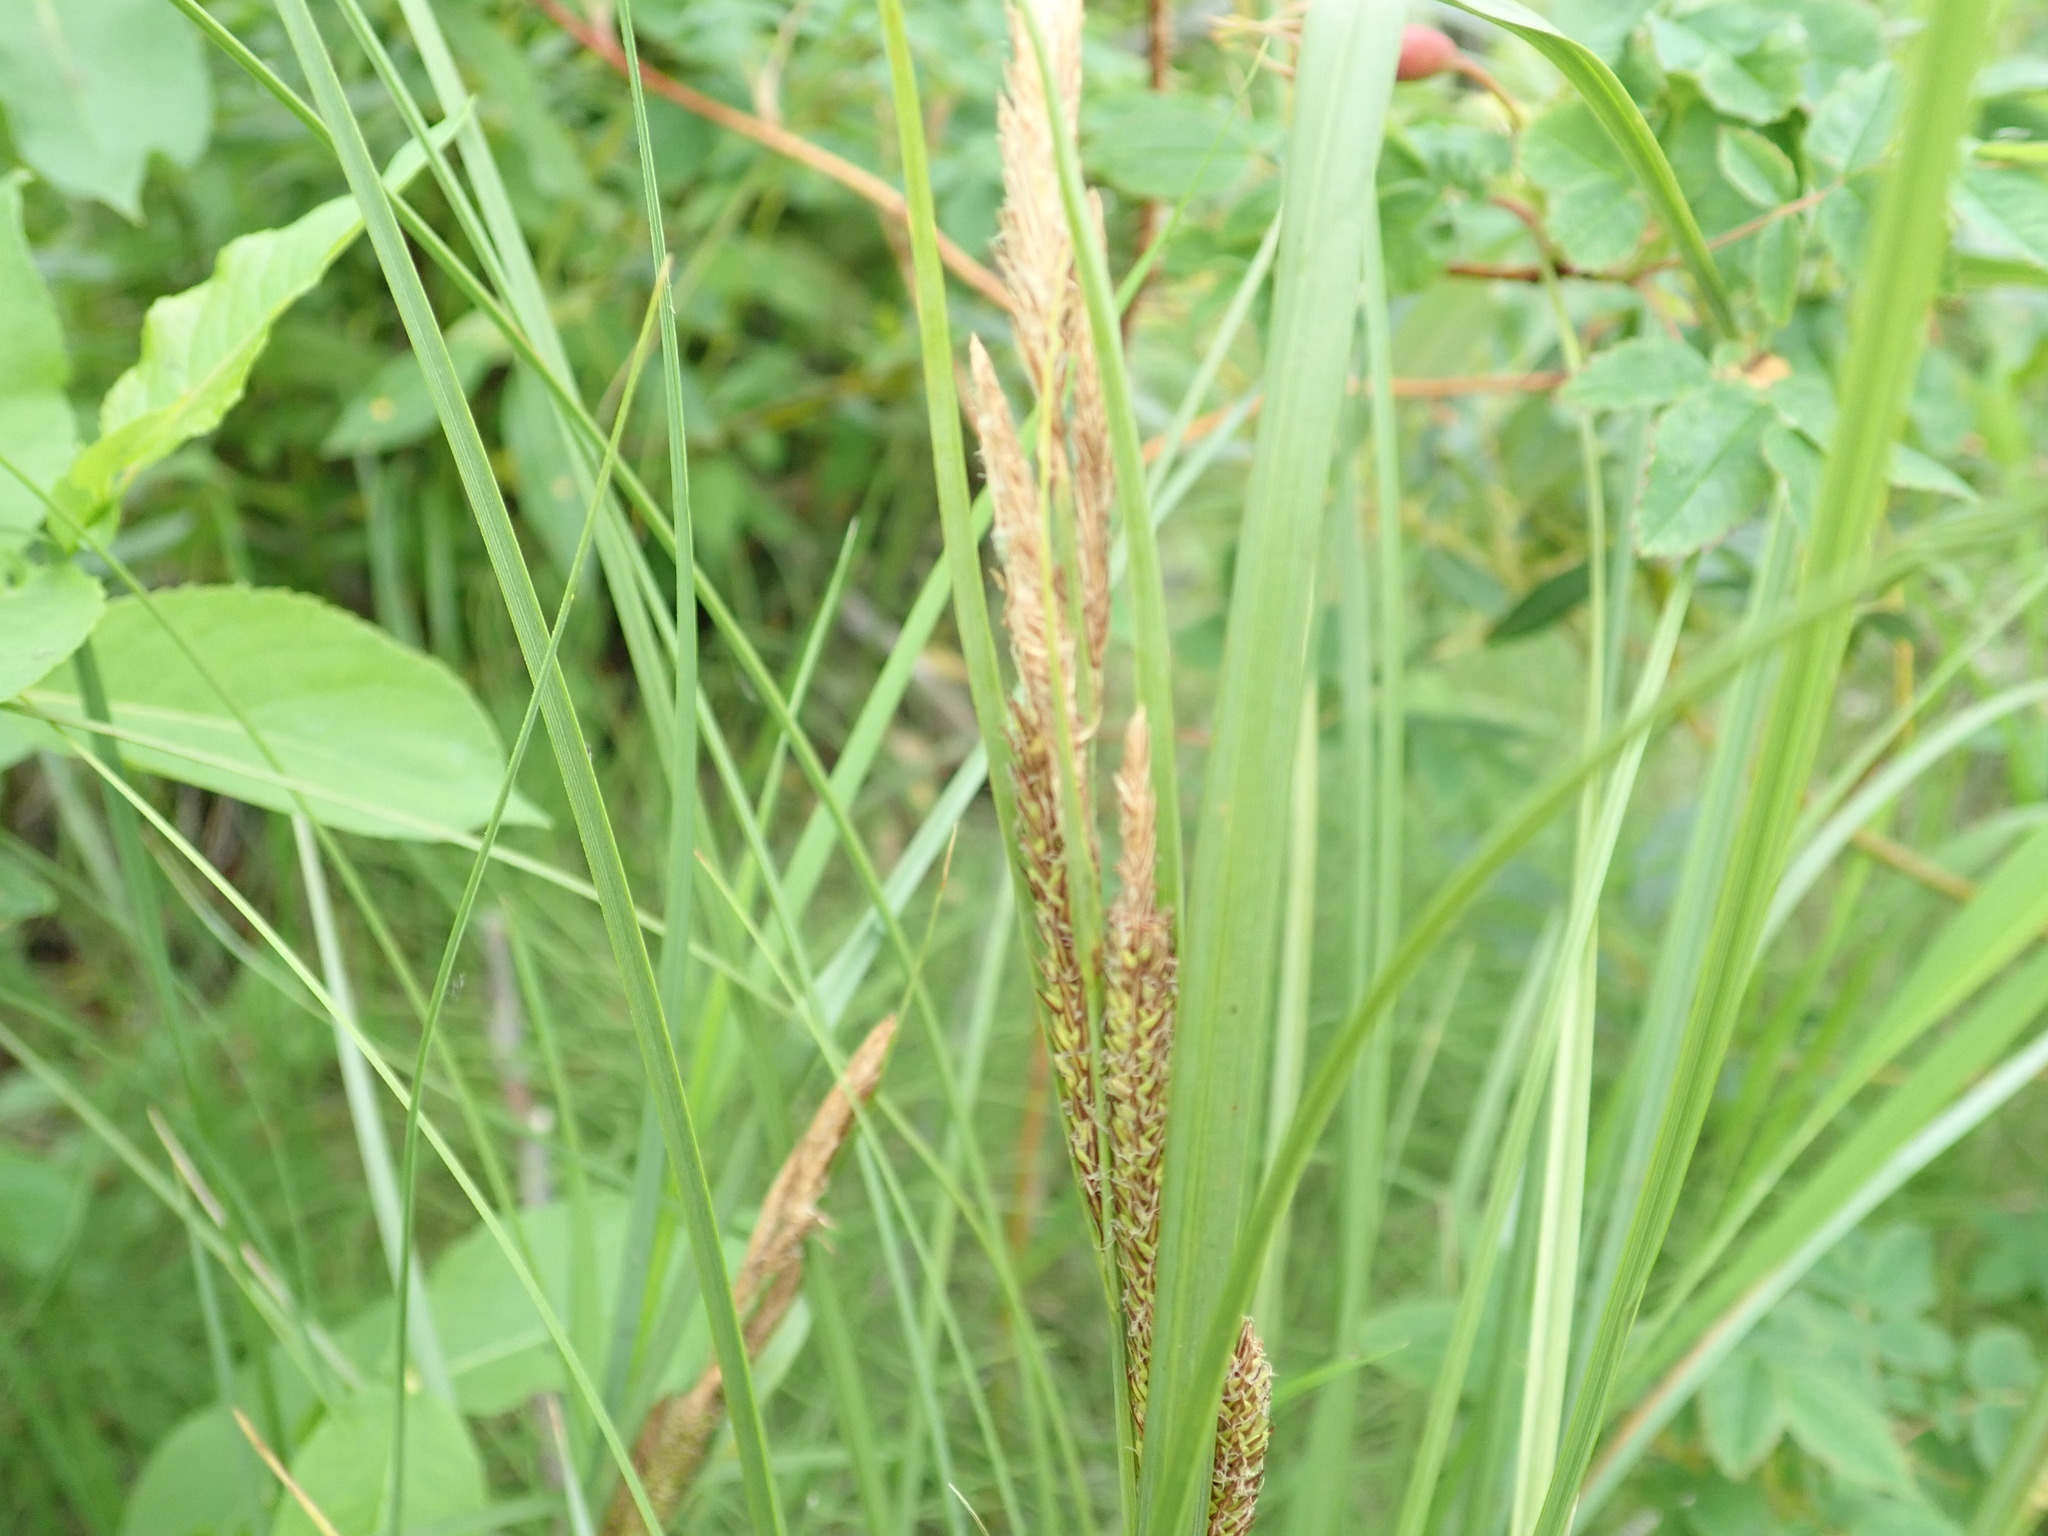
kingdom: Plantae
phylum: Tracheophyta
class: Liliopsida
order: Poales
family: Cyperaceae
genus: Carex
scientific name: Carex aquatilis
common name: Water sedge
